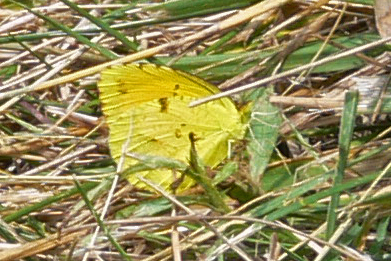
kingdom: Animalia
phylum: Arthropoda
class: Insecta
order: Lepidoptera
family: Pieridae
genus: Abaeis
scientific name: Abaeis nicippe
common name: Sleepy orange
